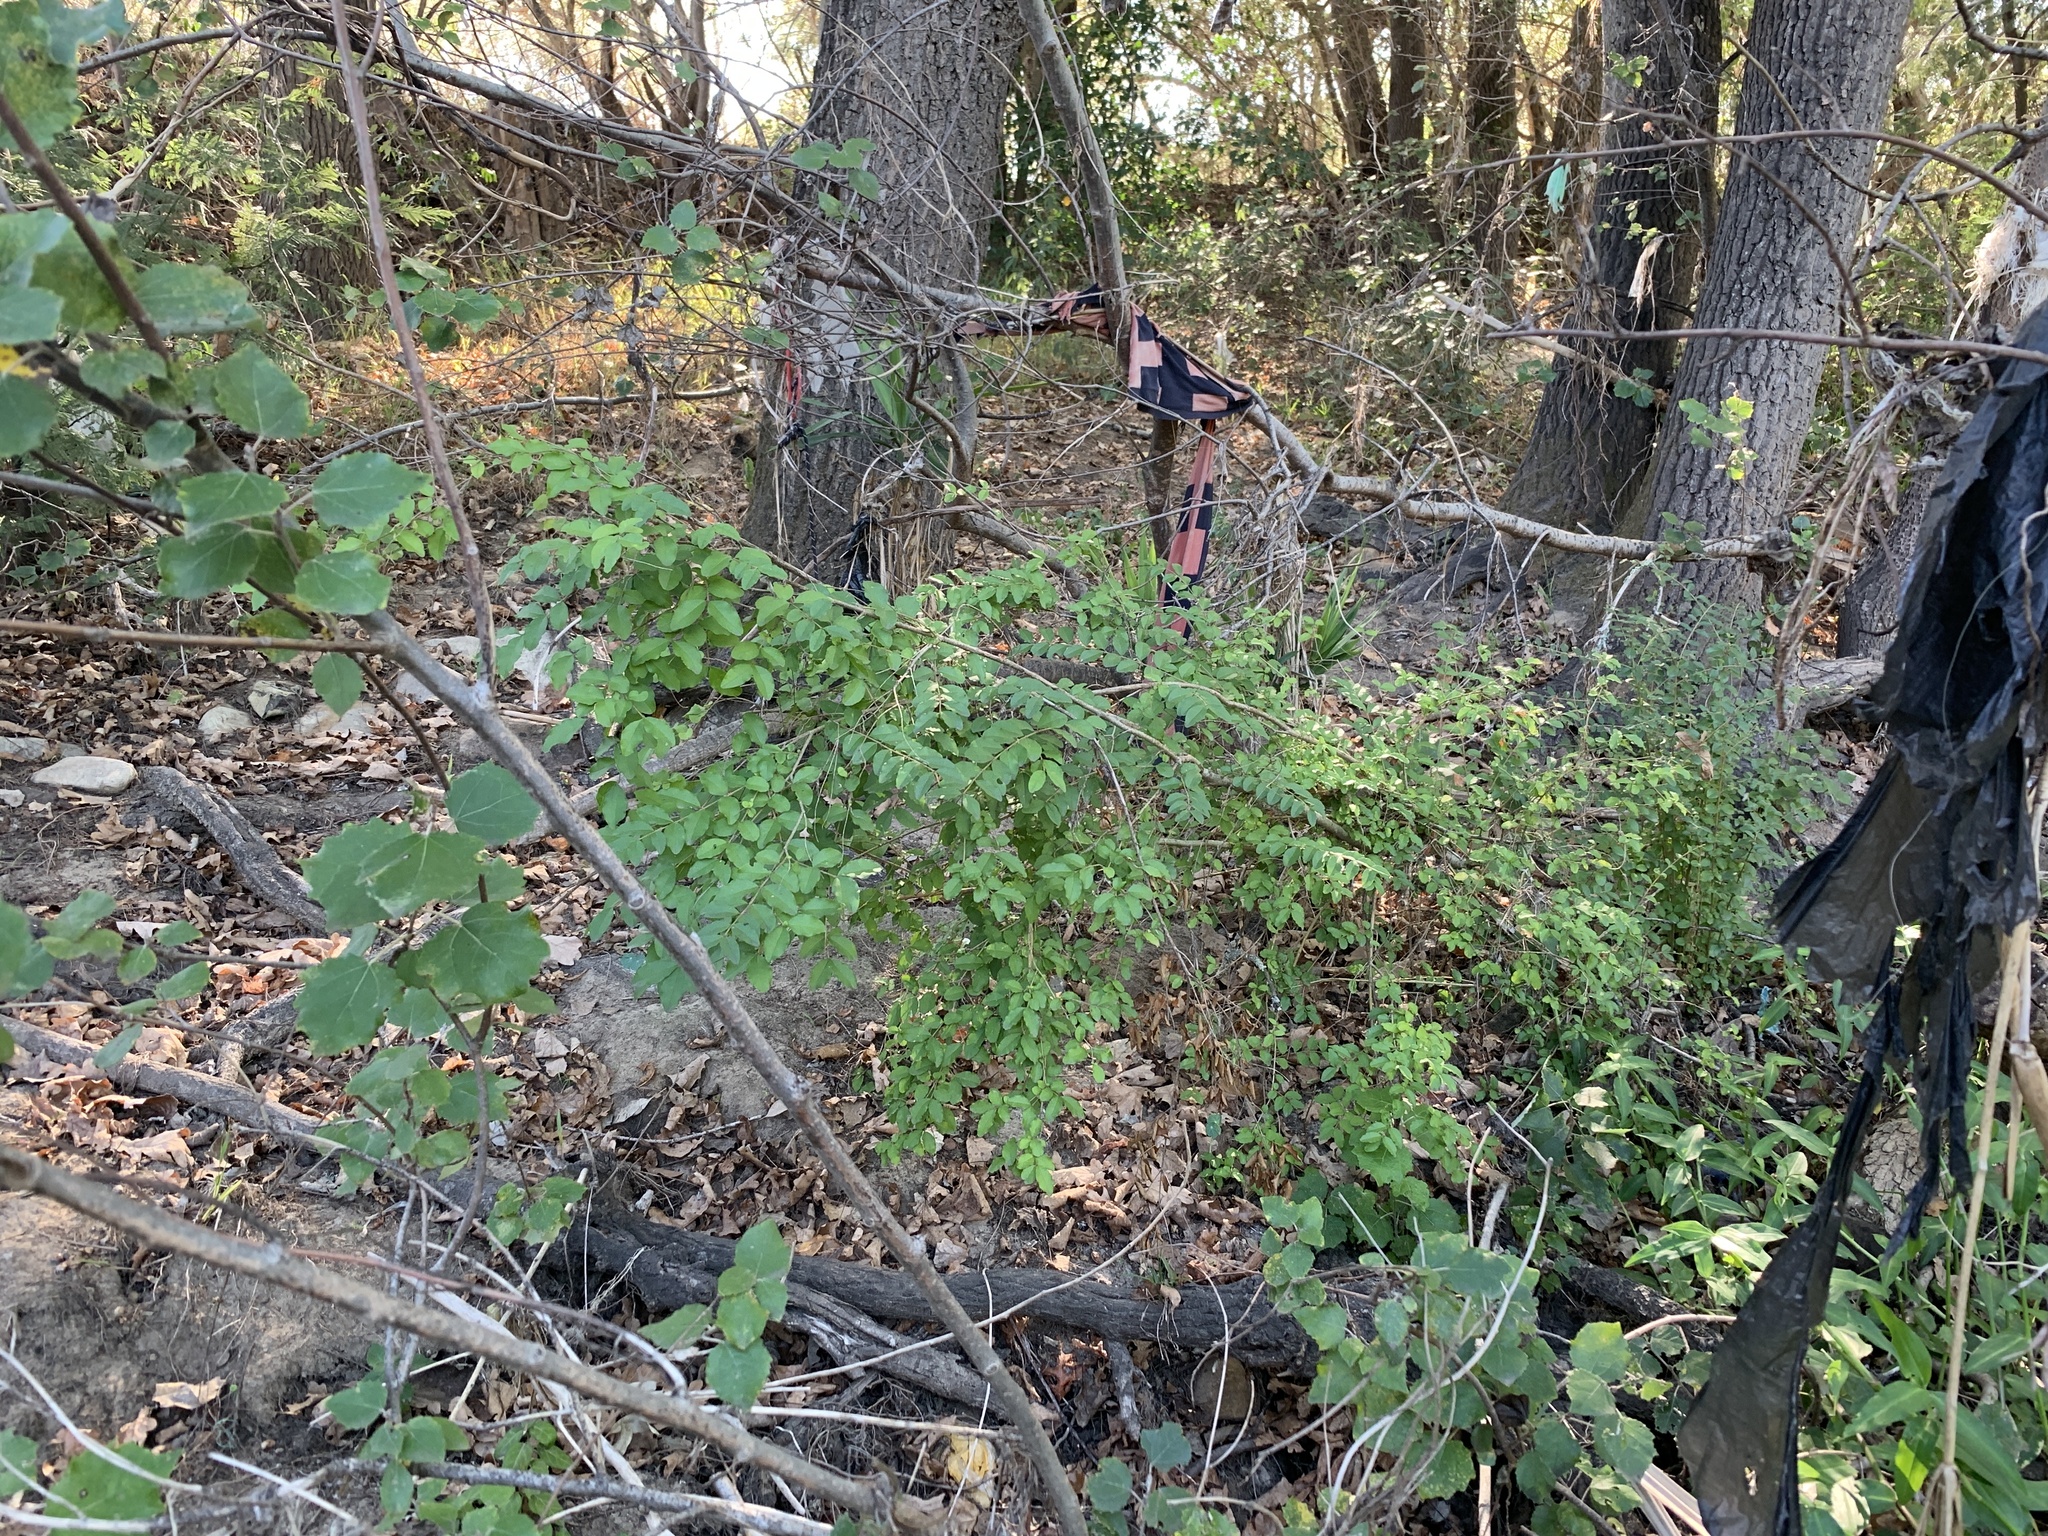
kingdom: Plantae
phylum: Tracheophyta
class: Magnoliopsida
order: Lamiales
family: Oleaceae
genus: Ligustrum
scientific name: Ligustrum sinense
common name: Chinese privet
